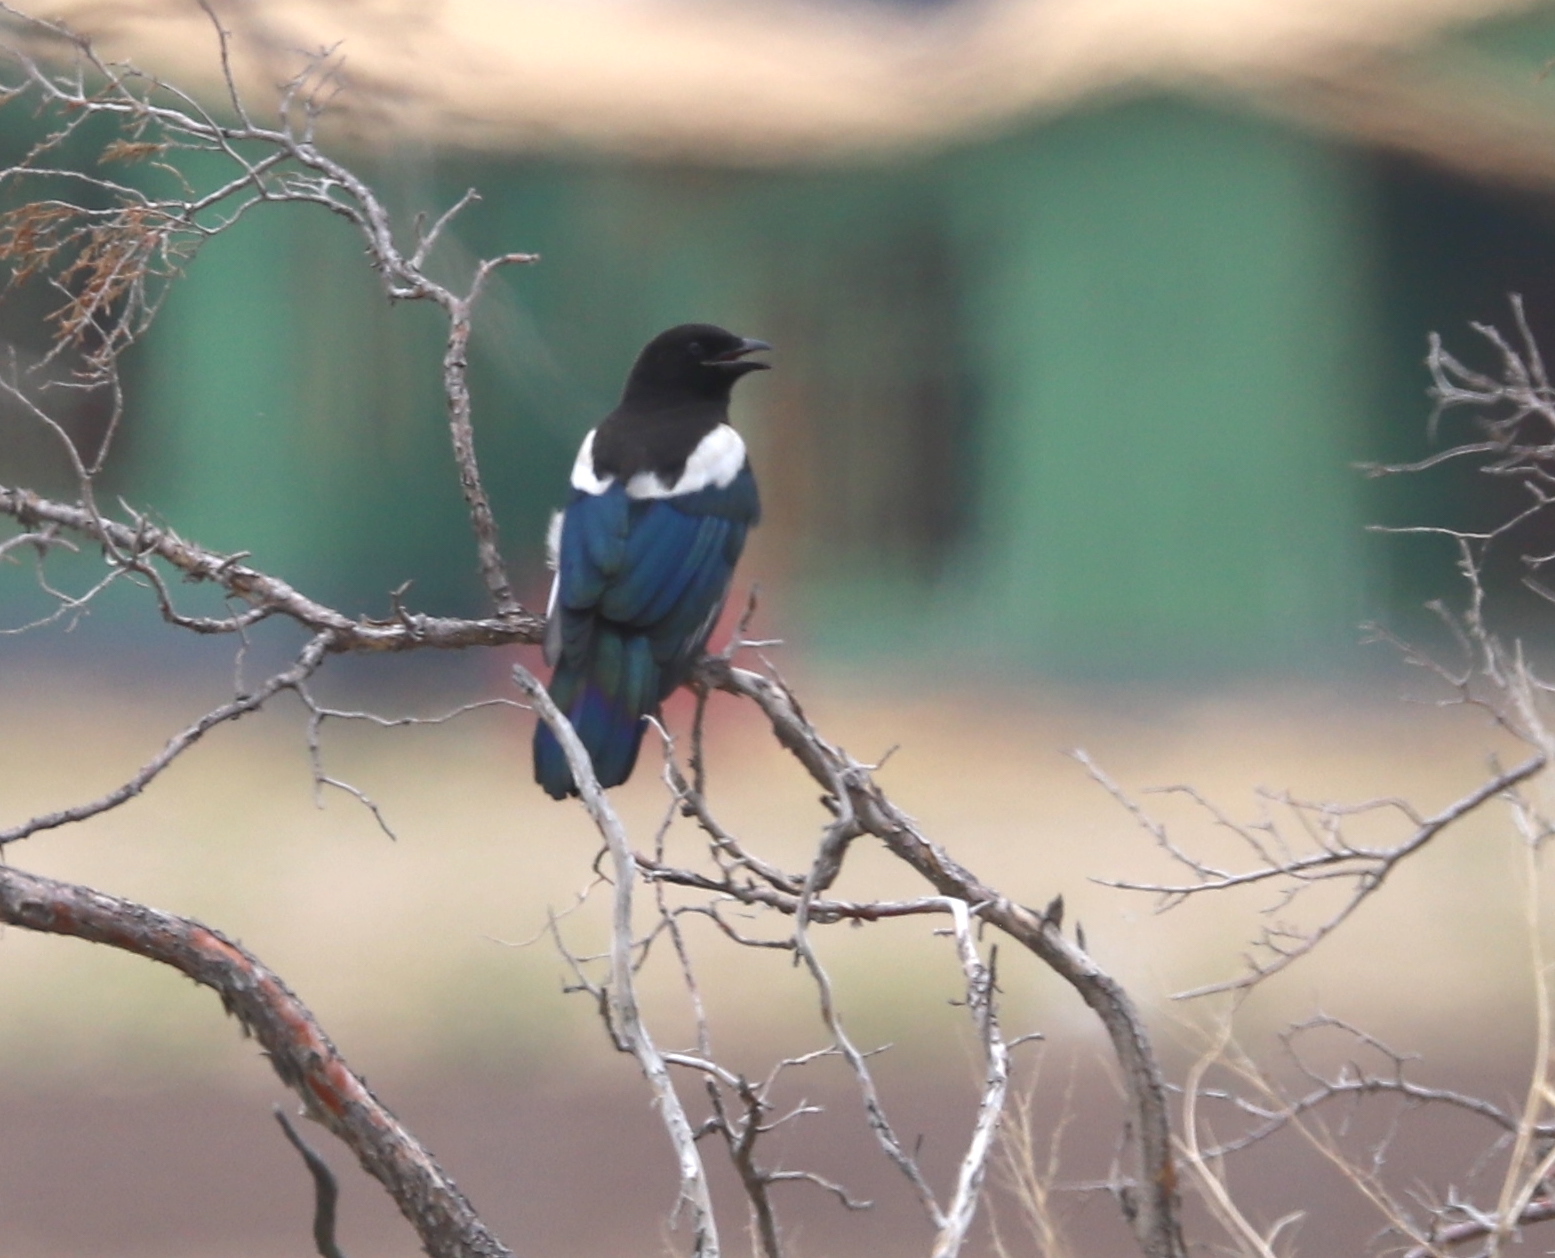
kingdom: Animalia
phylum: Chordata
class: Aves
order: Passeriformes
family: Corvidae
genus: Pica
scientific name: Pica hudsonia
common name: Black-billed magpie
